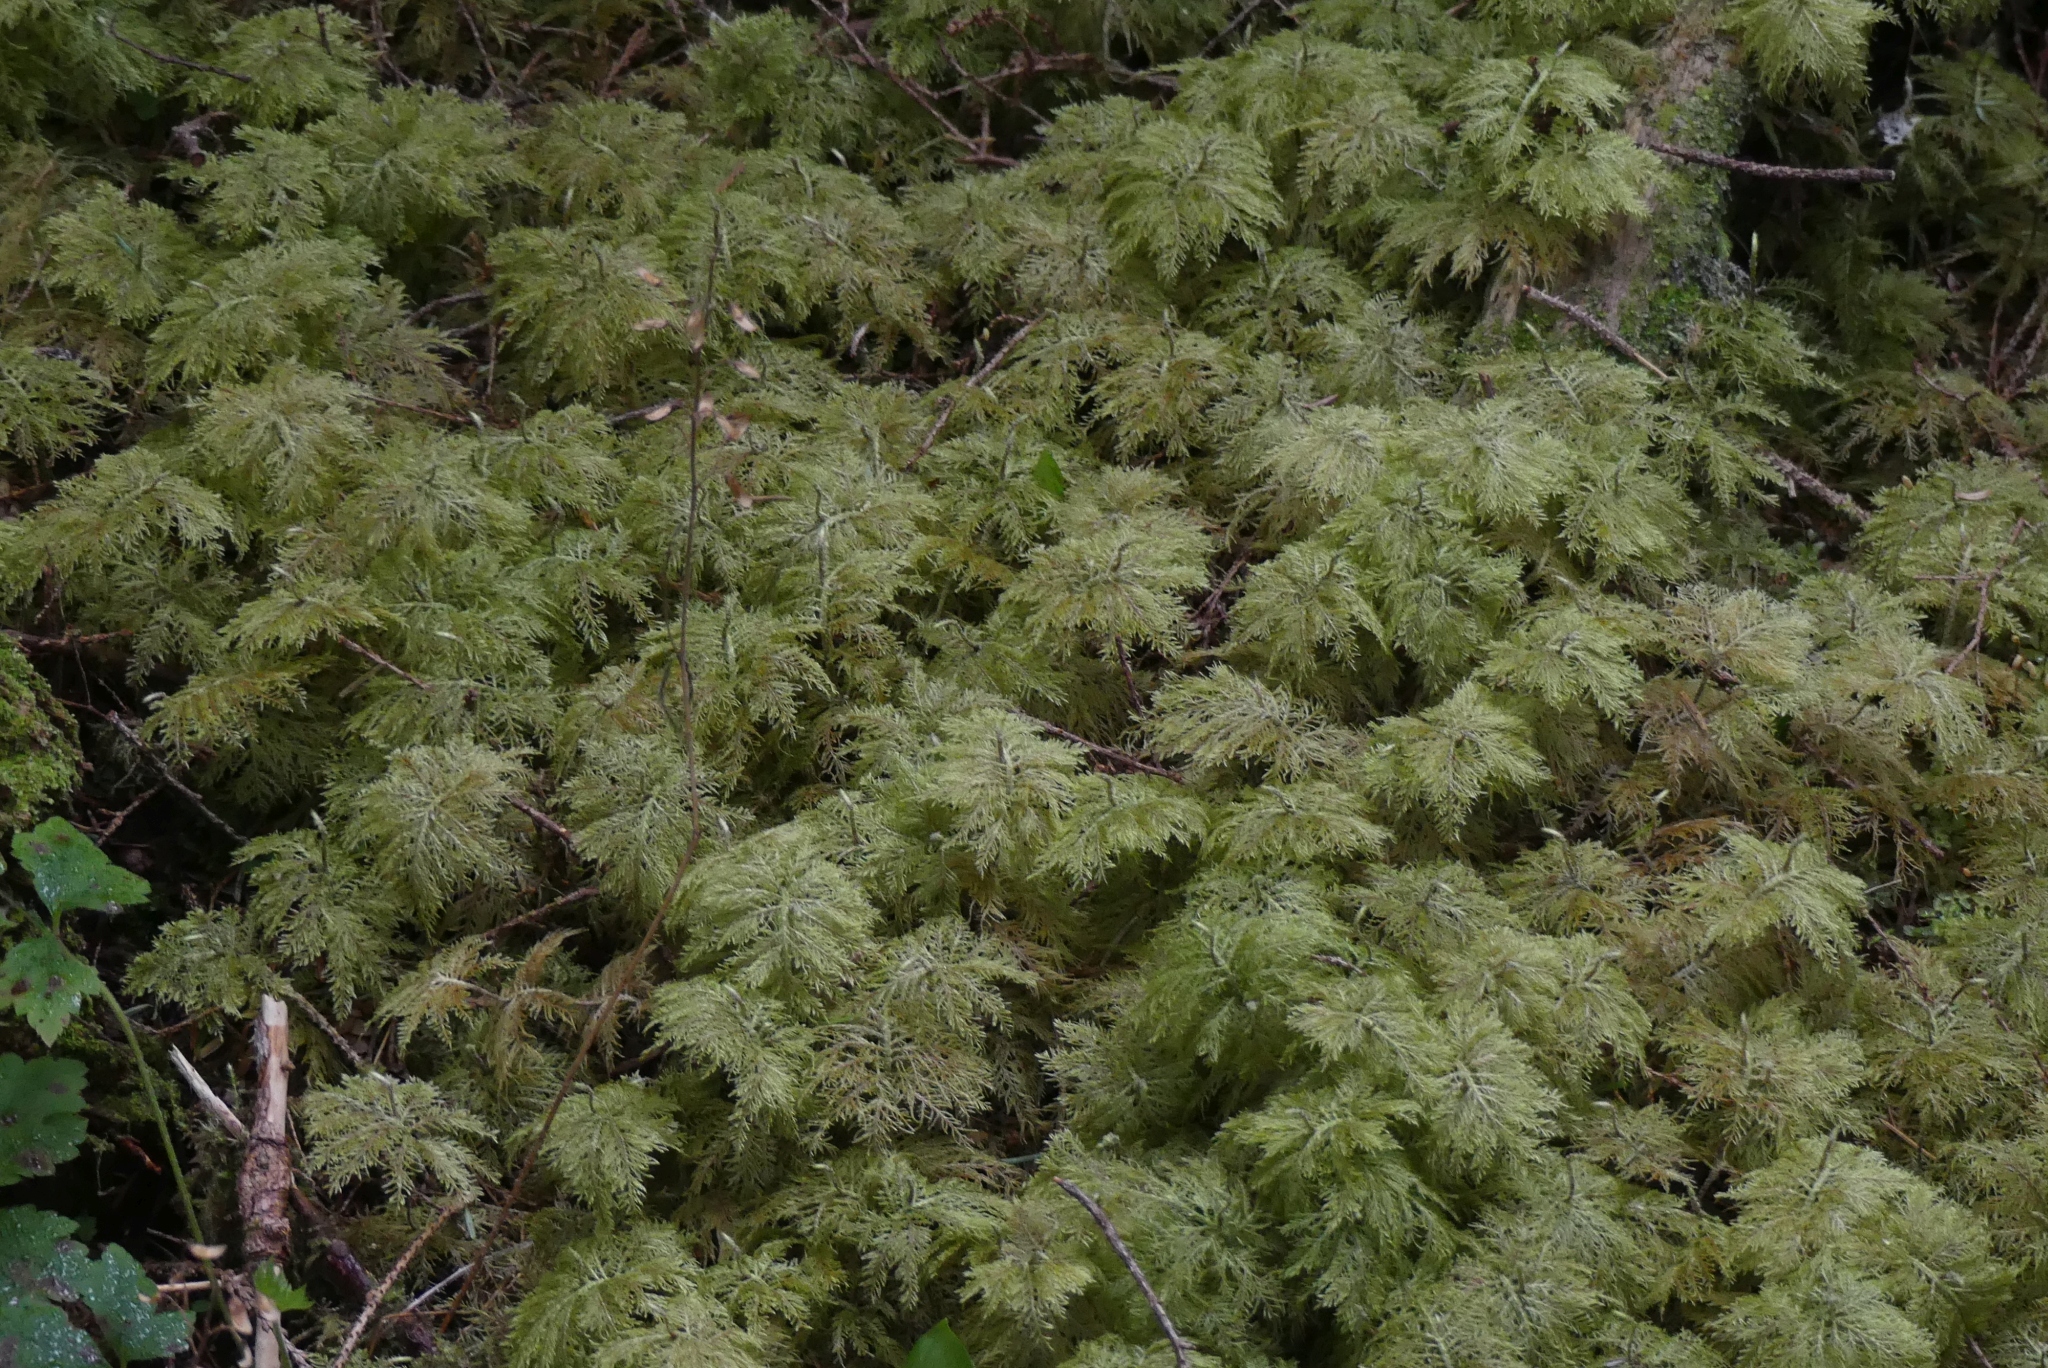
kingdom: Plantae
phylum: Bryophyta
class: Bryopsida
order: Hypnales
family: Hylocomiaceae
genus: Hylocomium
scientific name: Hylocomium splendens
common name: Stairstep moss
